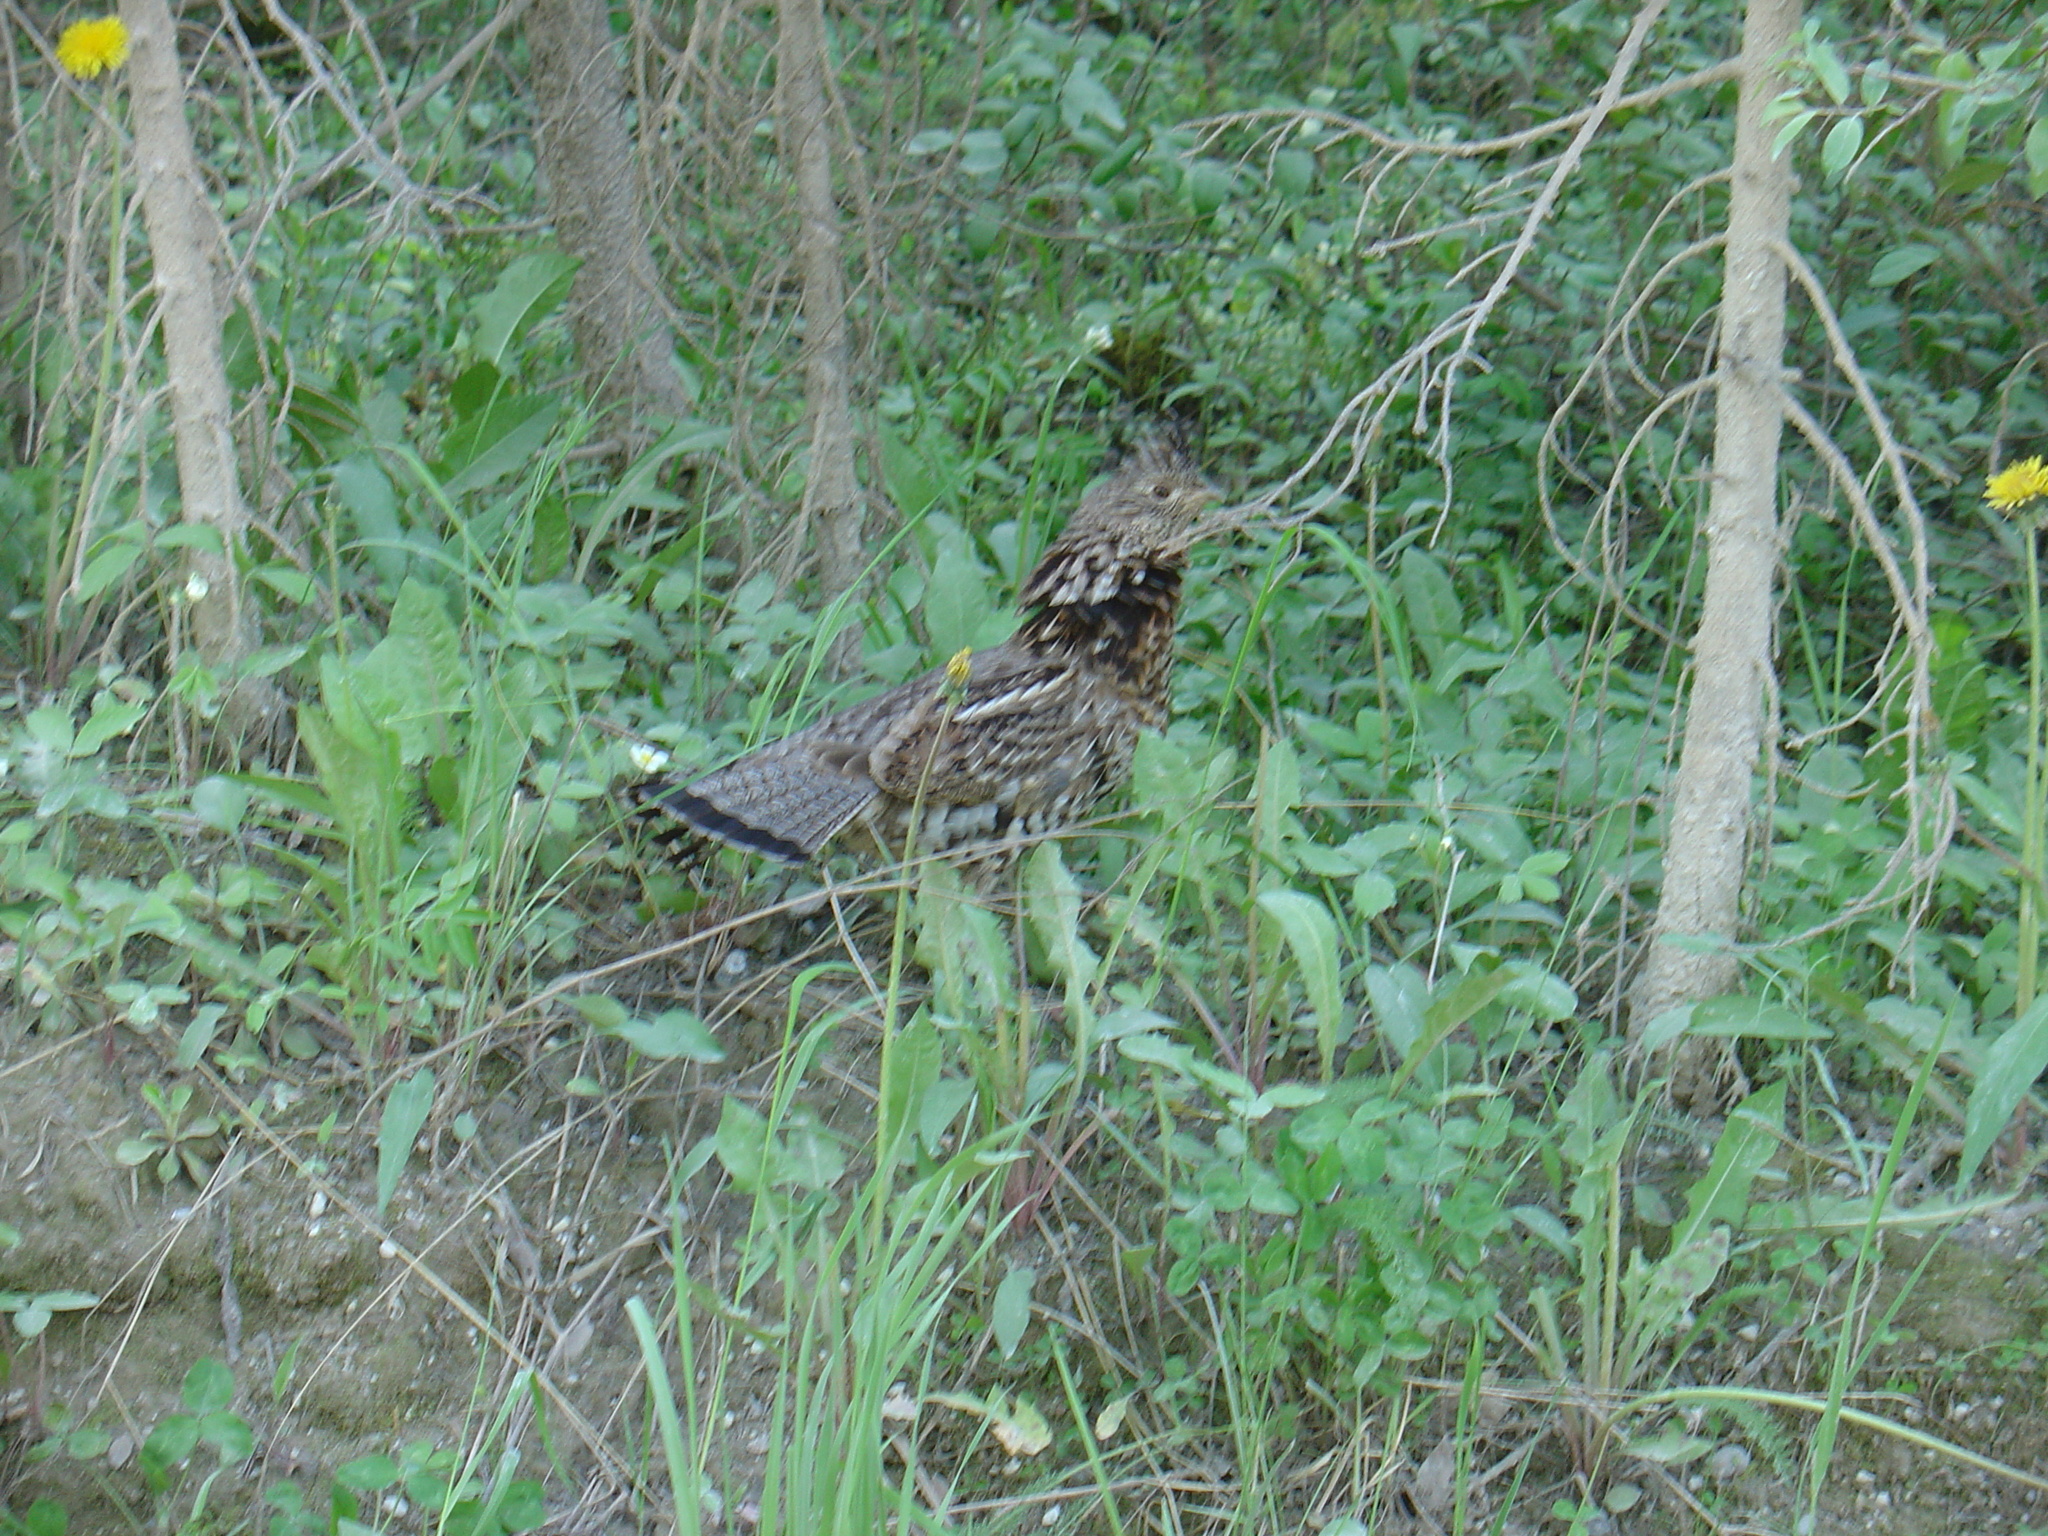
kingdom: Animalia
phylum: Chordata
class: Aves
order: Galliformes
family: Phasianidae
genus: Bonasa
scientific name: Bonasa umbellus
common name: Ruffed grouse
